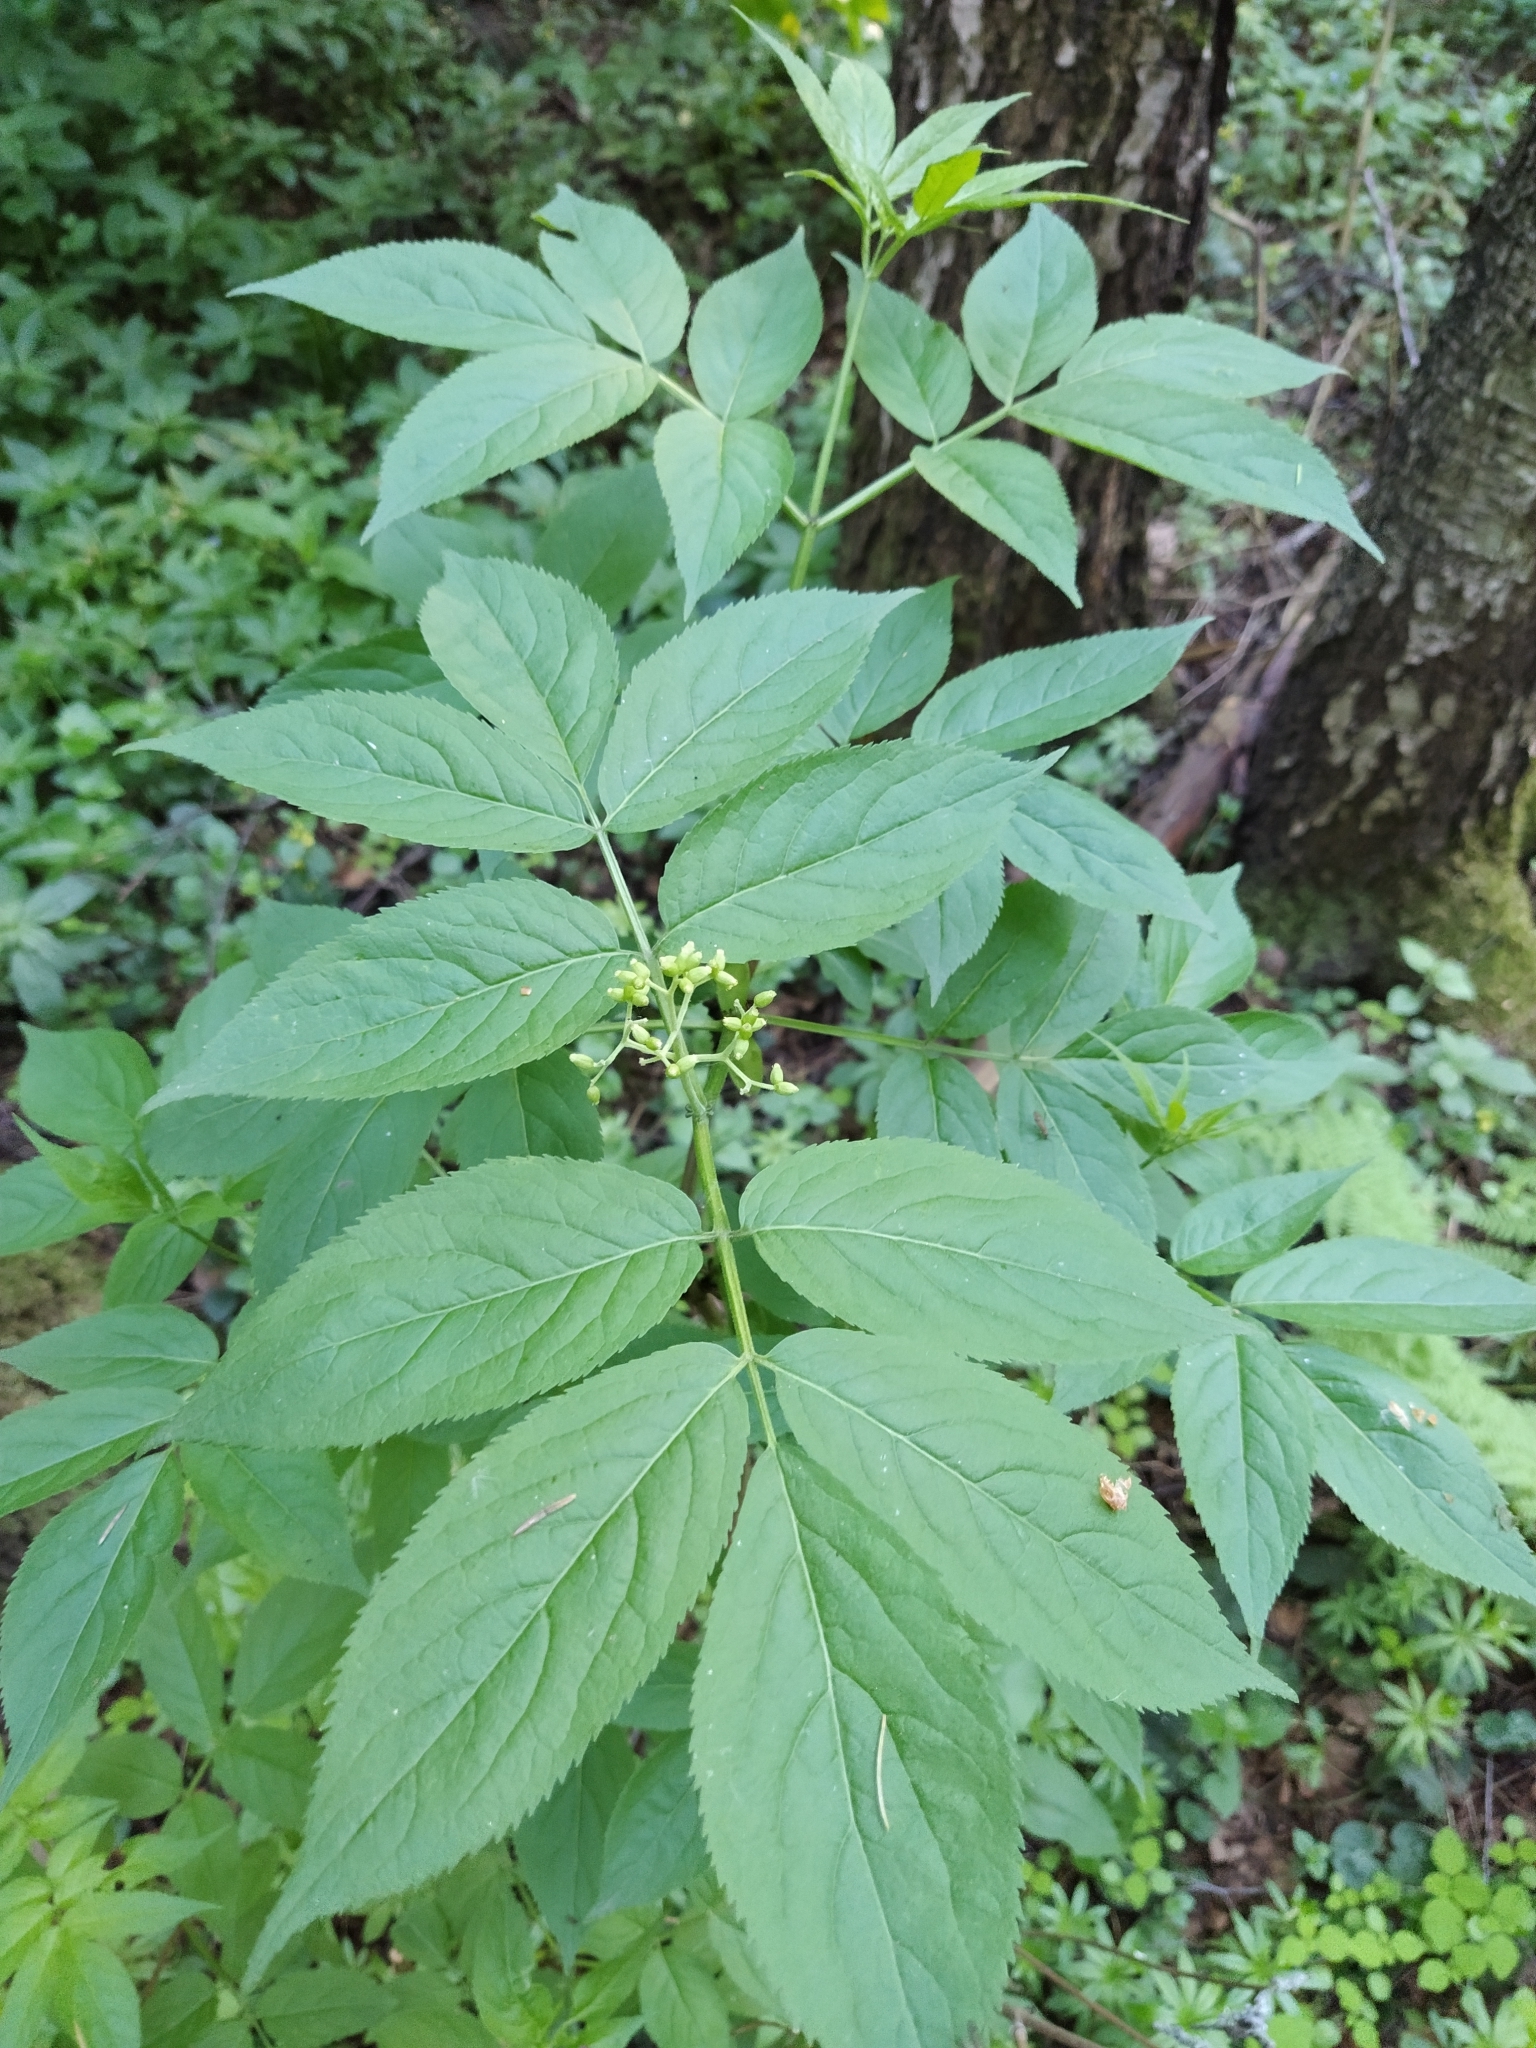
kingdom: Plantae
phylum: Tracheophyta
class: Magnoliopsida
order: Dipsacales
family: Viburnaceae
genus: Sambucus
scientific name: Sambucus racemosa
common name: Red-berried elder
